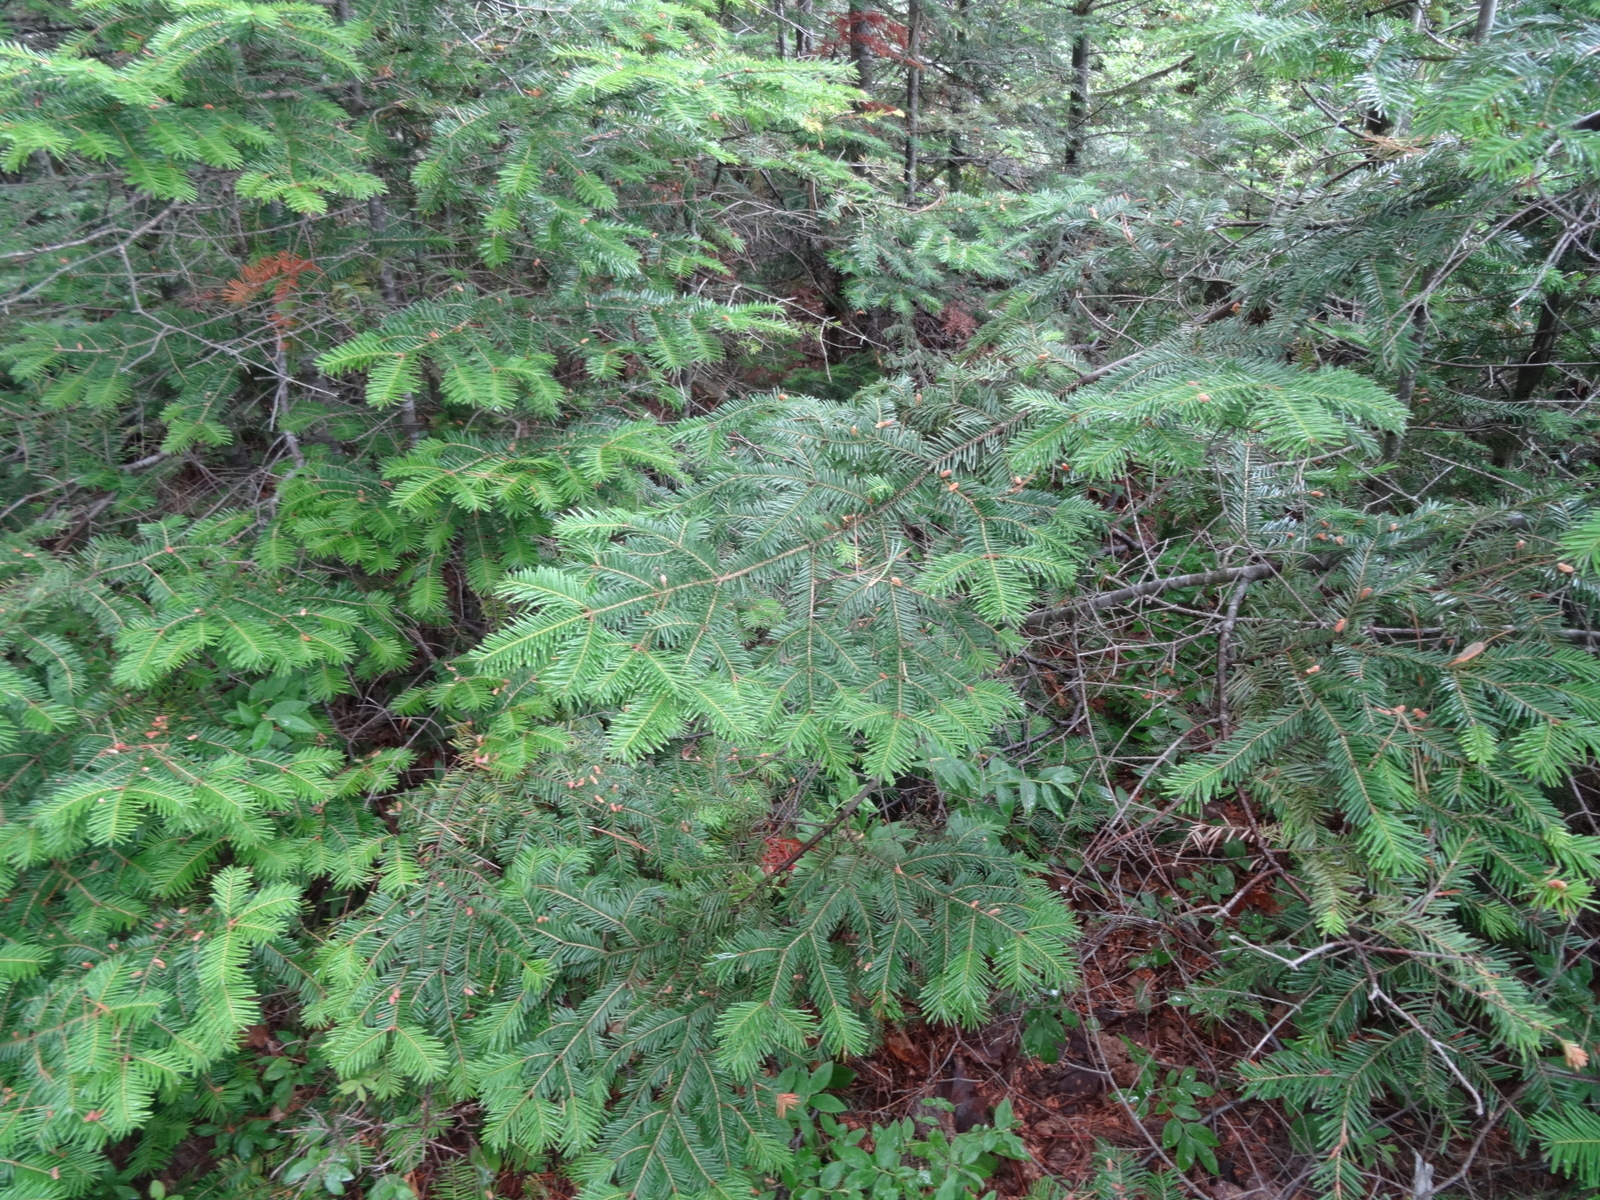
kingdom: Plantae
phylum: Tracheophyta
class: Pinopsida
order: Pinales
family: Pinaceae
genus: Abies
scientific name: Abies balsamea
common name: Balsam fir
